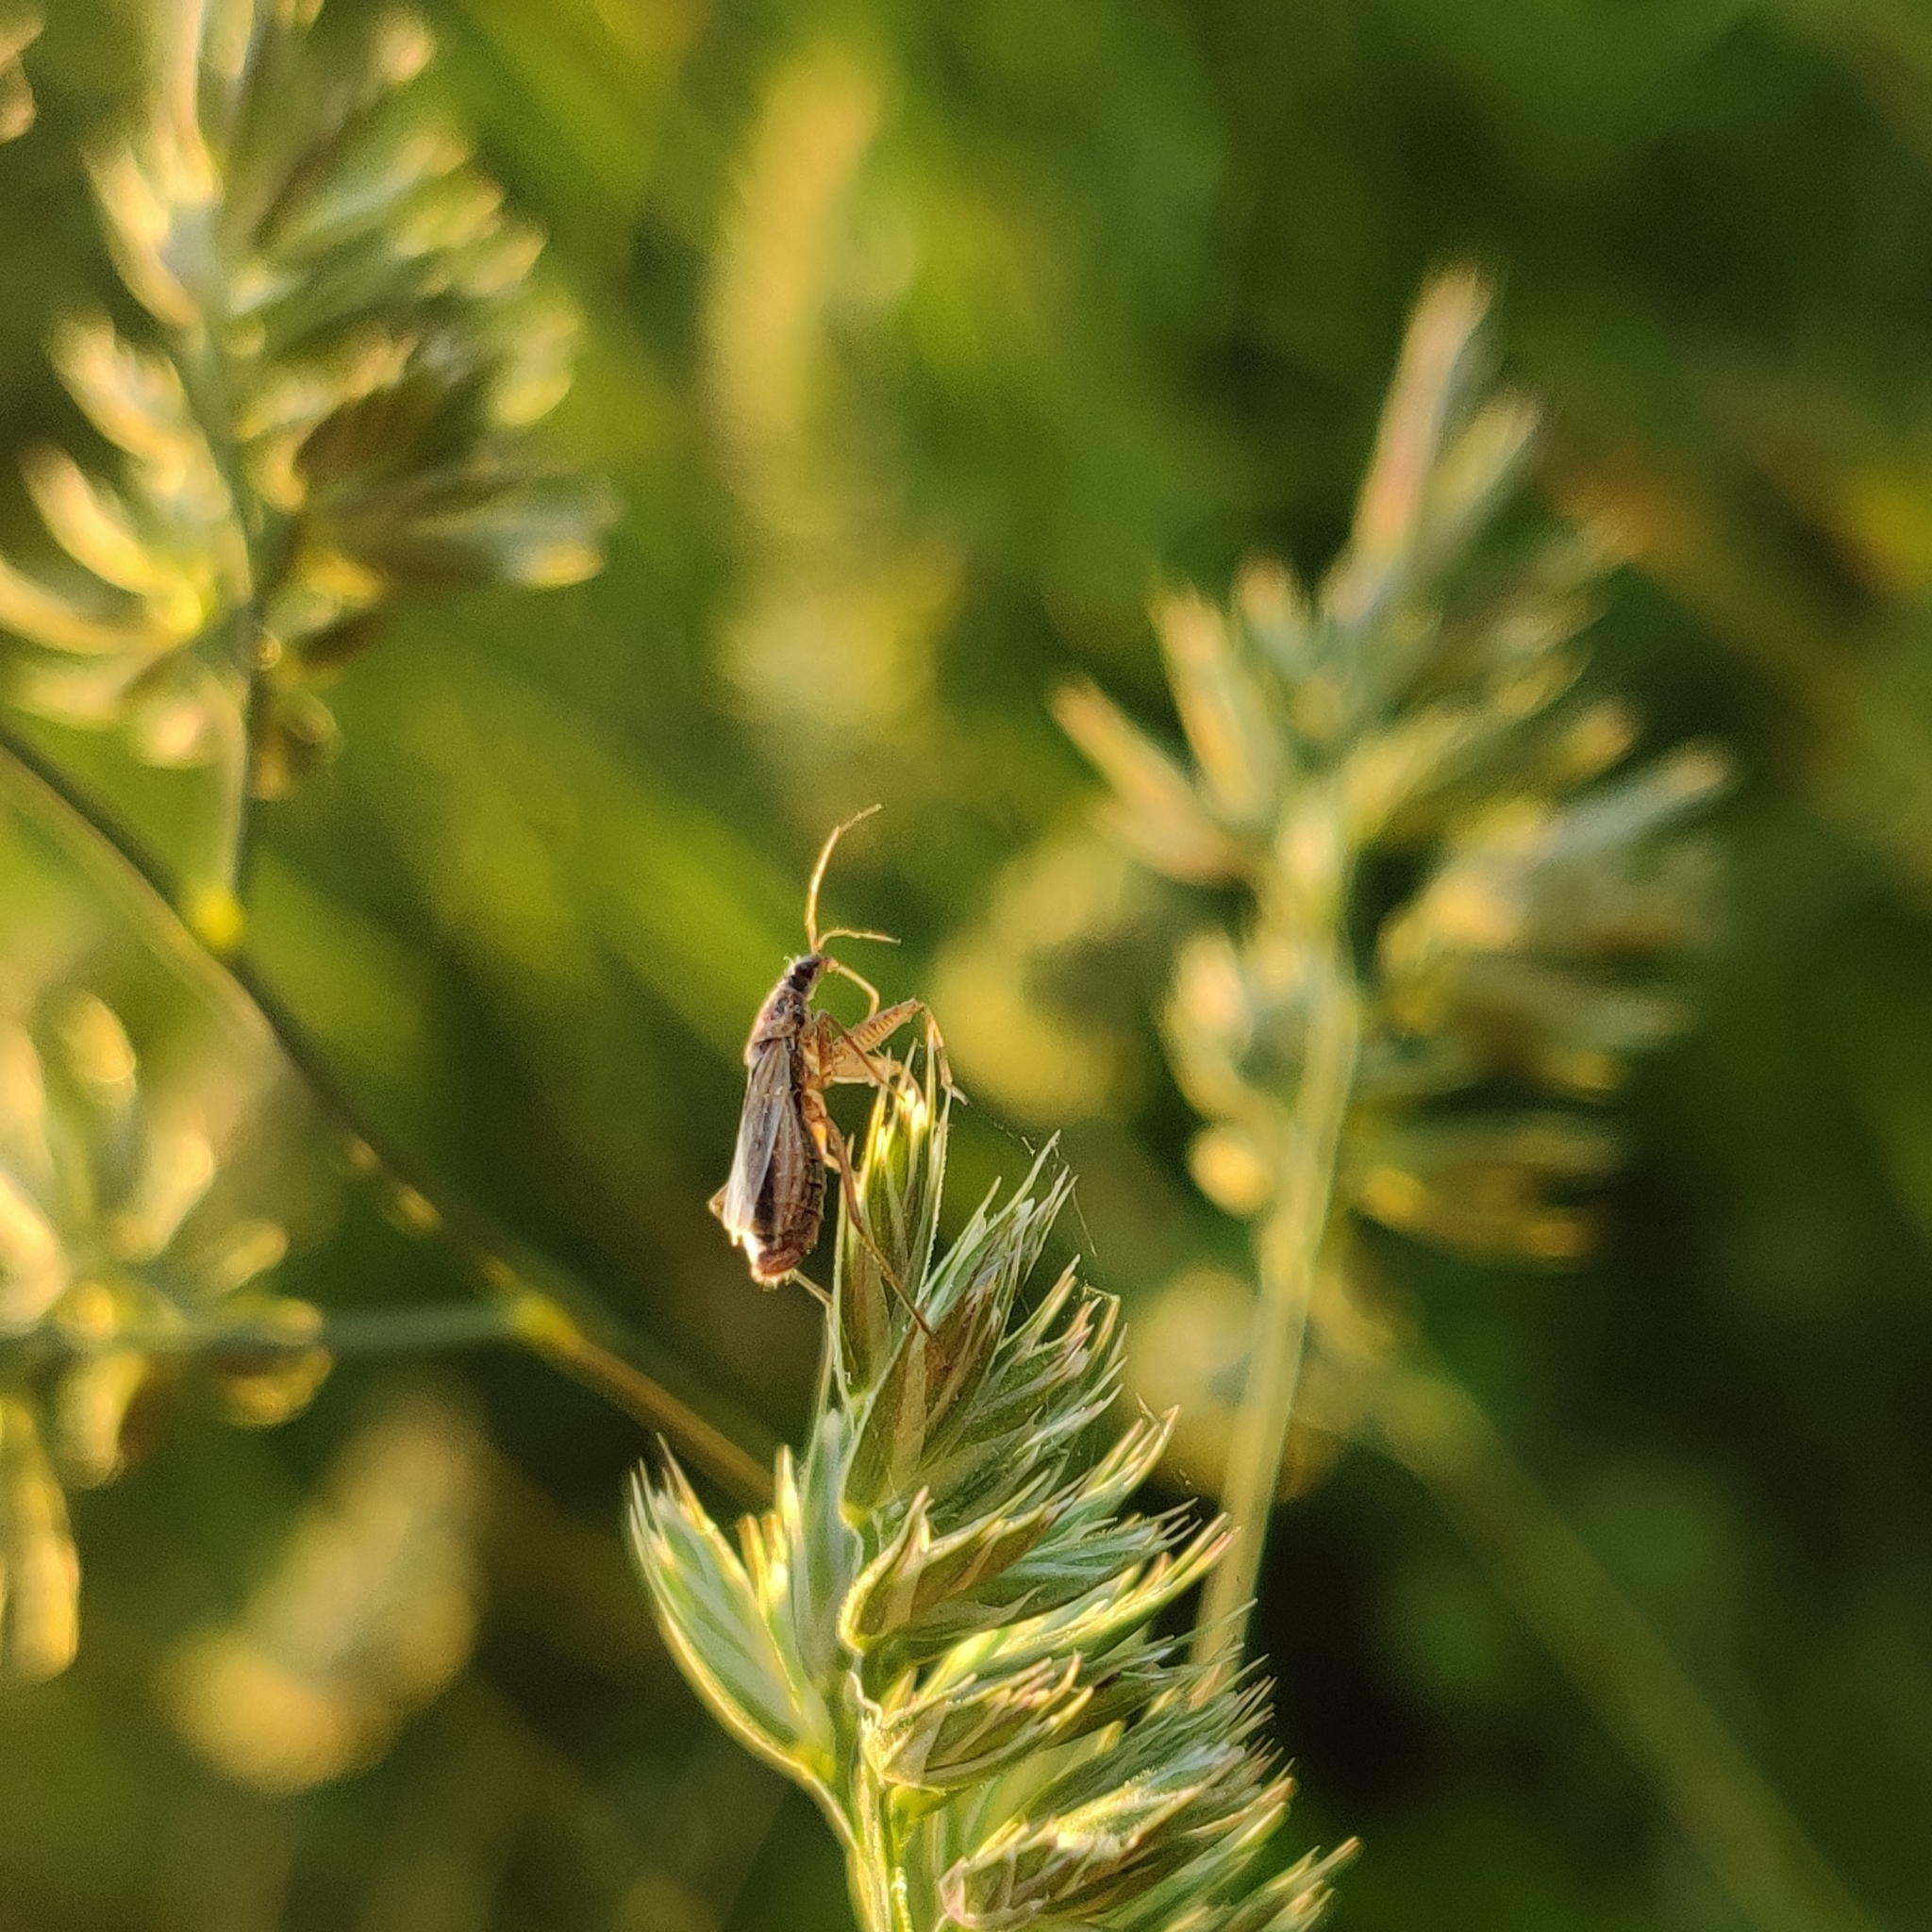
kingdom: Animalia
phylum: Arthropoda
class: Insecta
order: Hemiptera
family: Nabidae
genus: Nabis
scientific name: Nabis
